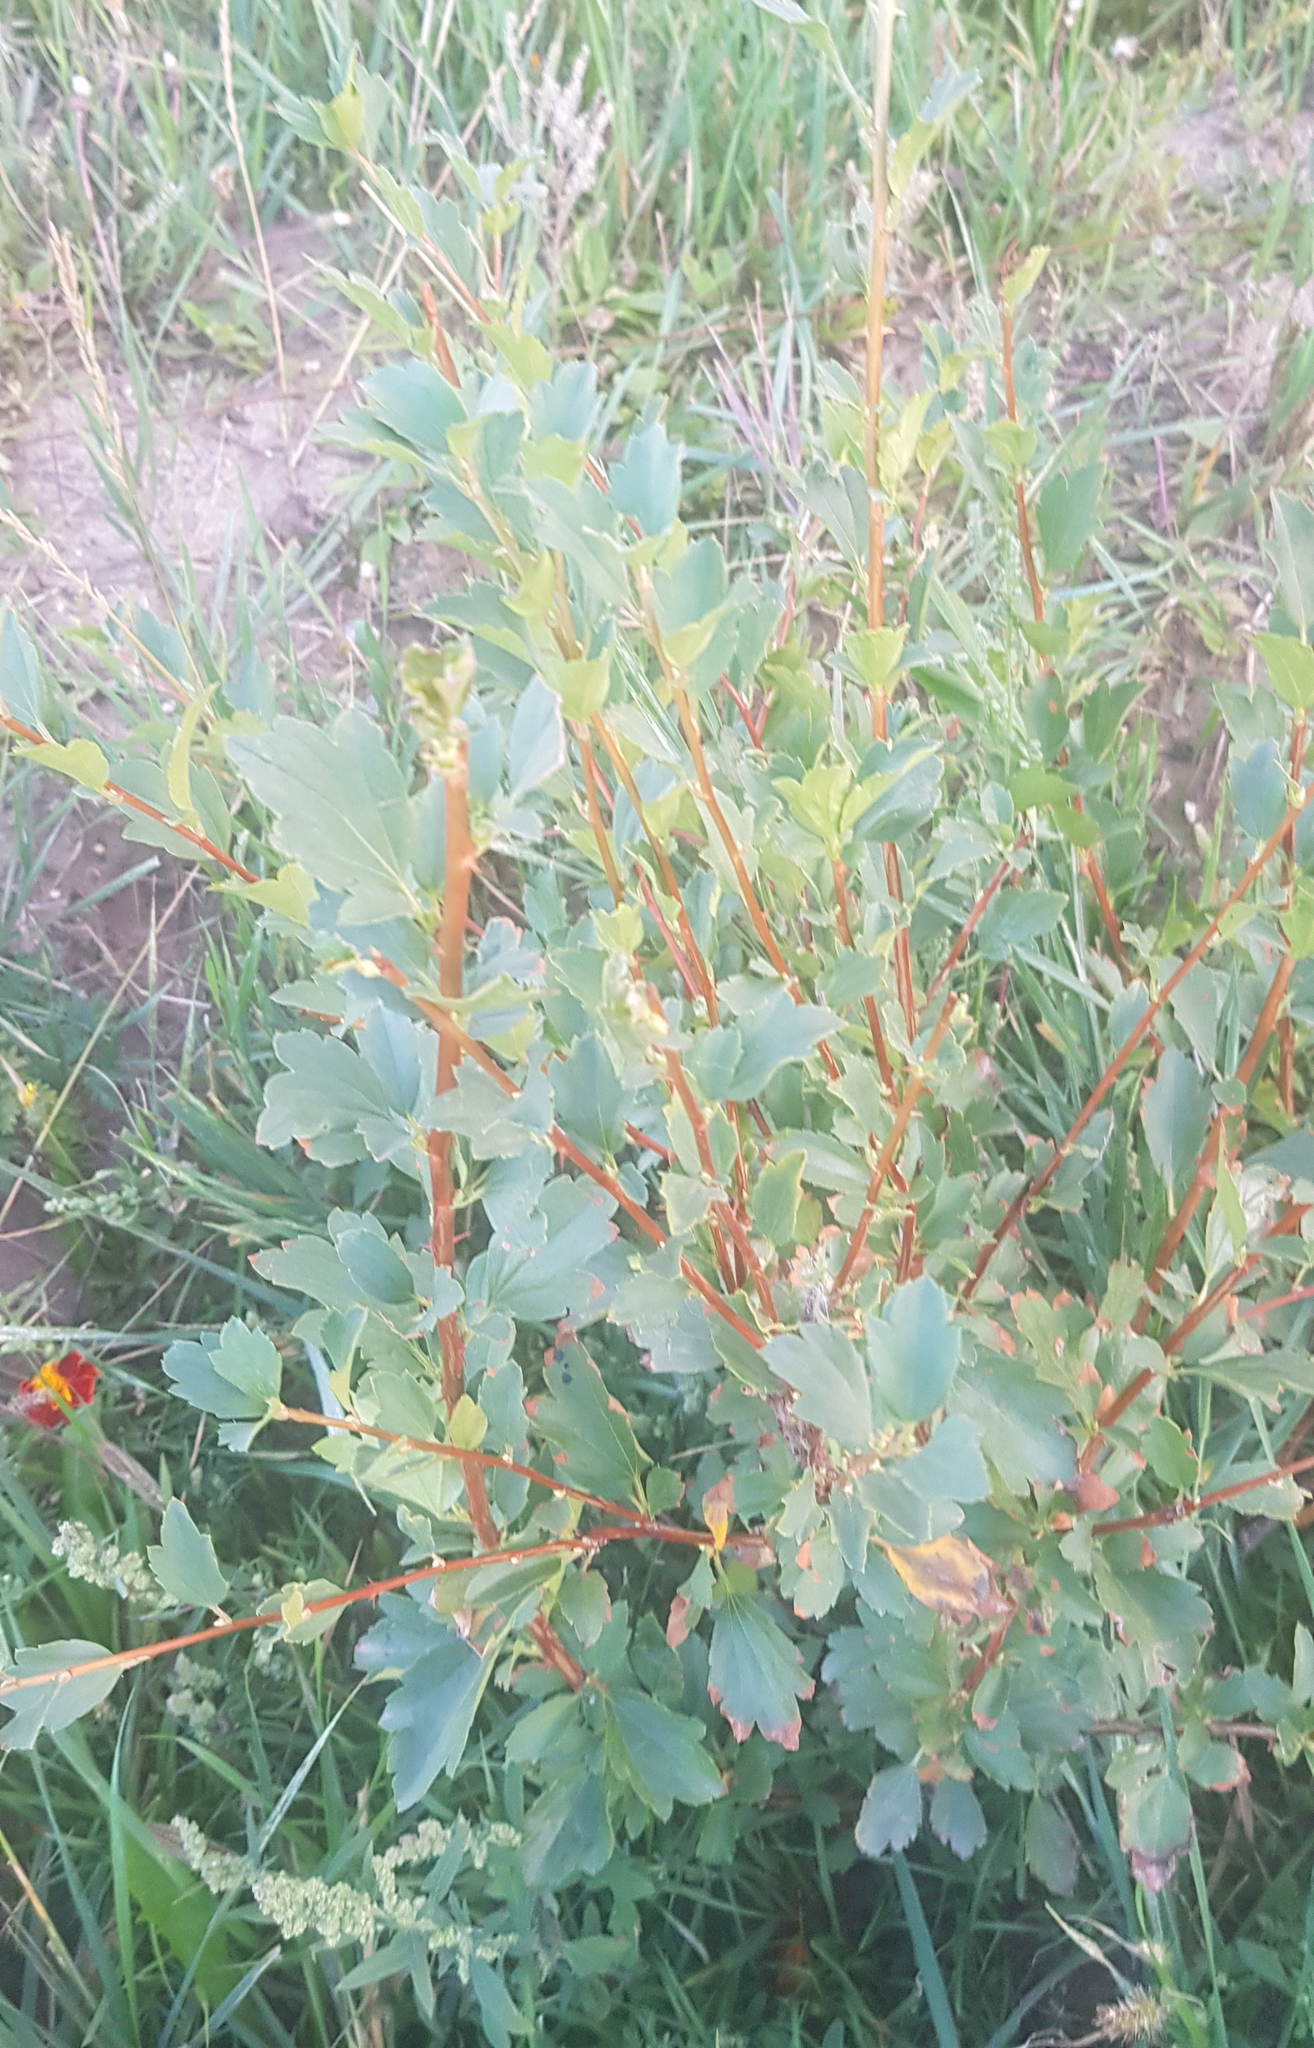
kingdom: Plantae
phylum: Tracheophyta
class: Magnoliopsida
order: Saxifragales
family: Grossulariaceae
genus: Ribes
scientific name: Ribes diacanthum
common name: Siberian currant
